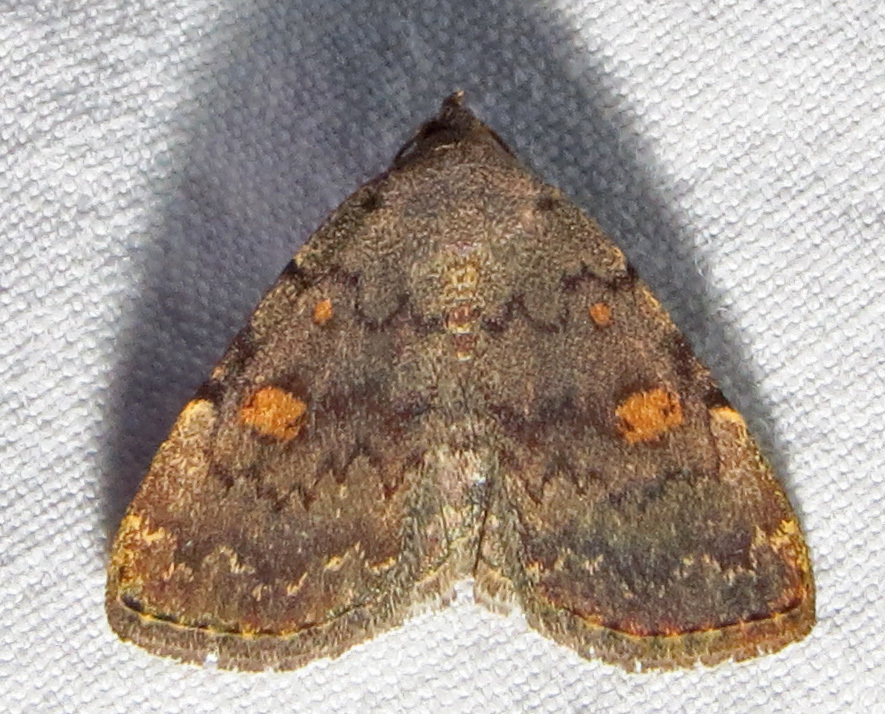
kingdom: Animalia
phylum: Arthropoda
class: Insecta
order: Lepidoptera
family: Erebidae
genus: Idia
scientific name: Idia aemula
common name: Common idia moth
